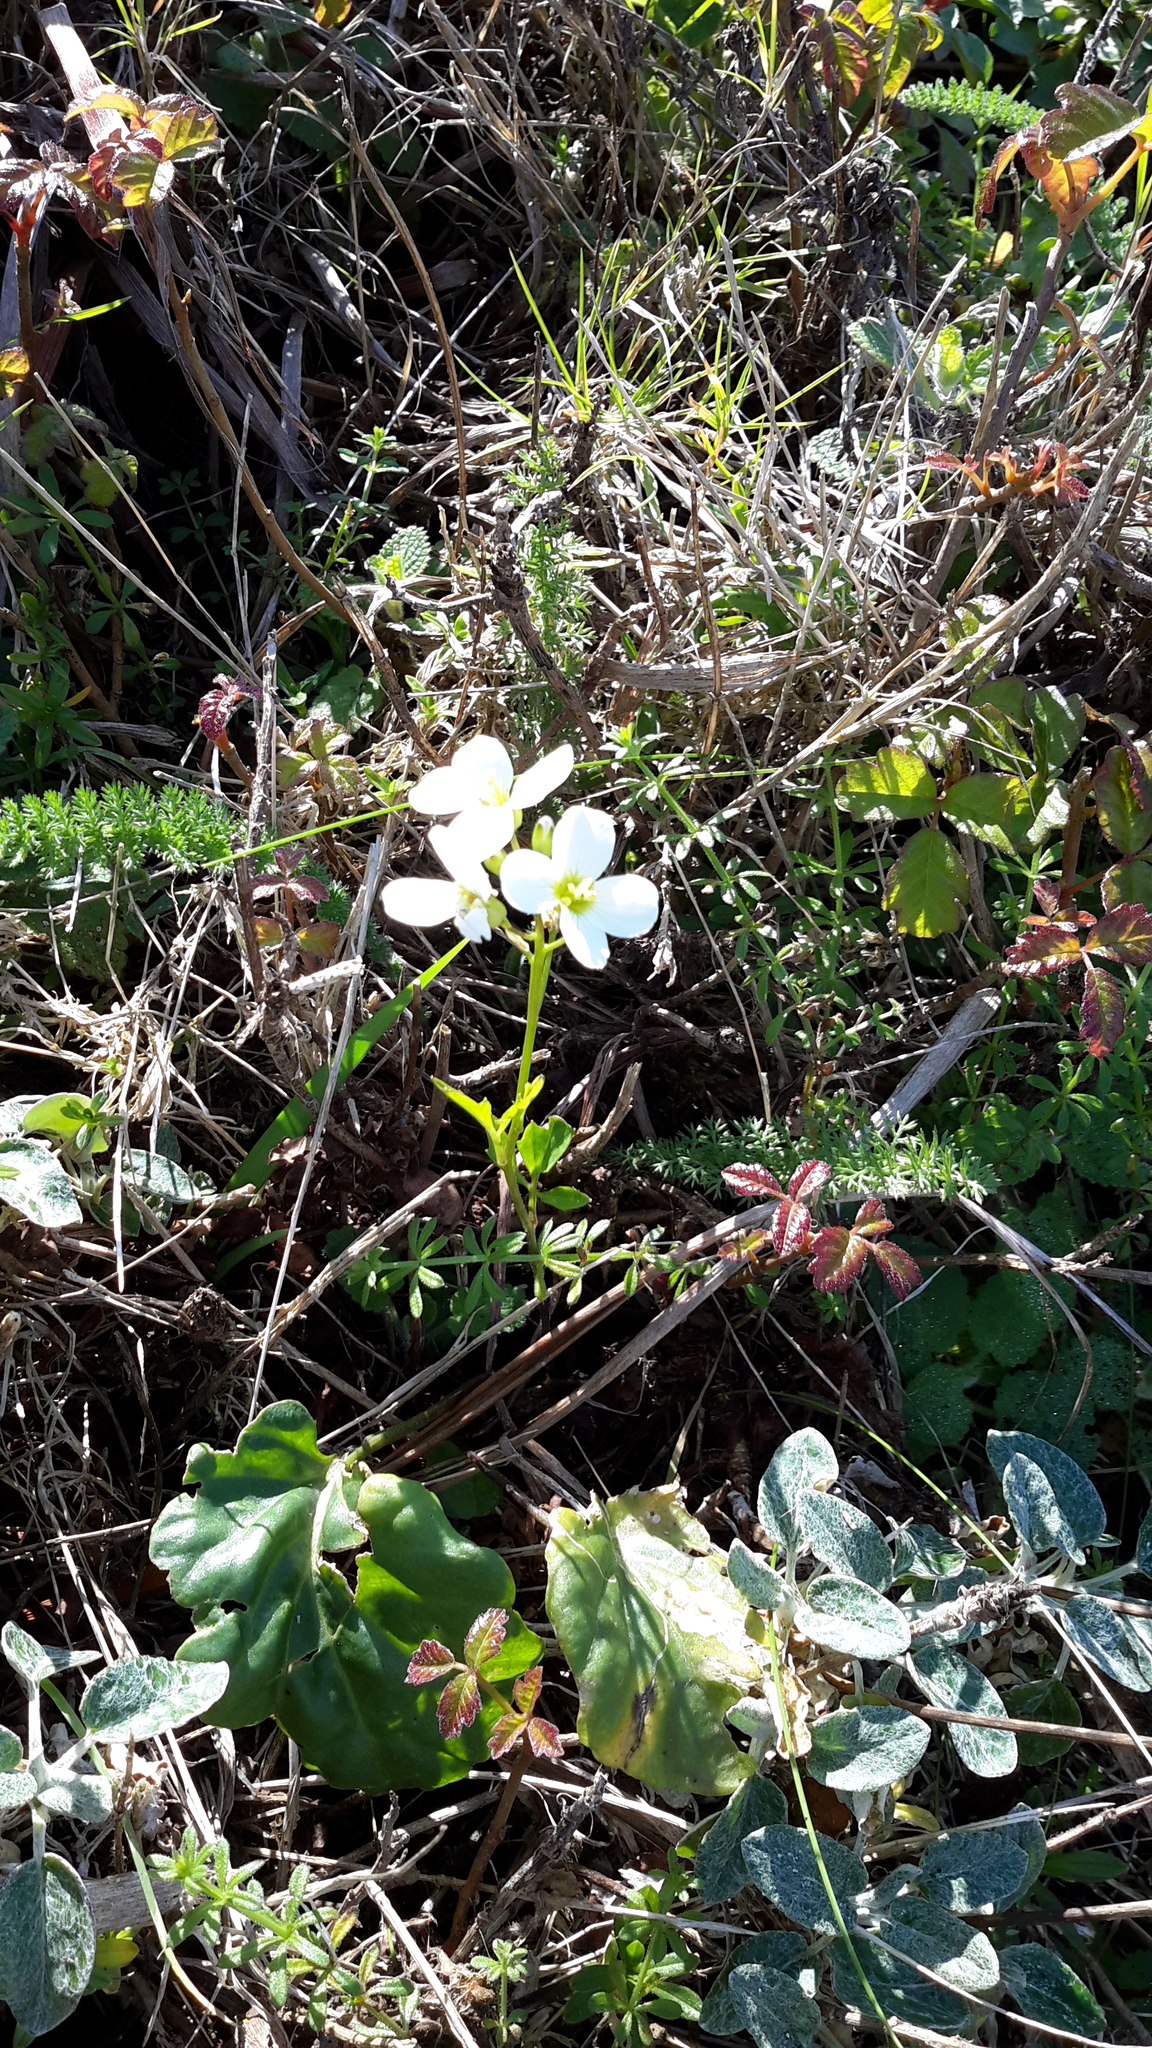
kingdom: Plantae
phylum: Tracheophyta
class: Magnoliopsida
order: Brassicales
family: Brassicaceae
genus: Cardamine
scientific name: Cardamine californica
